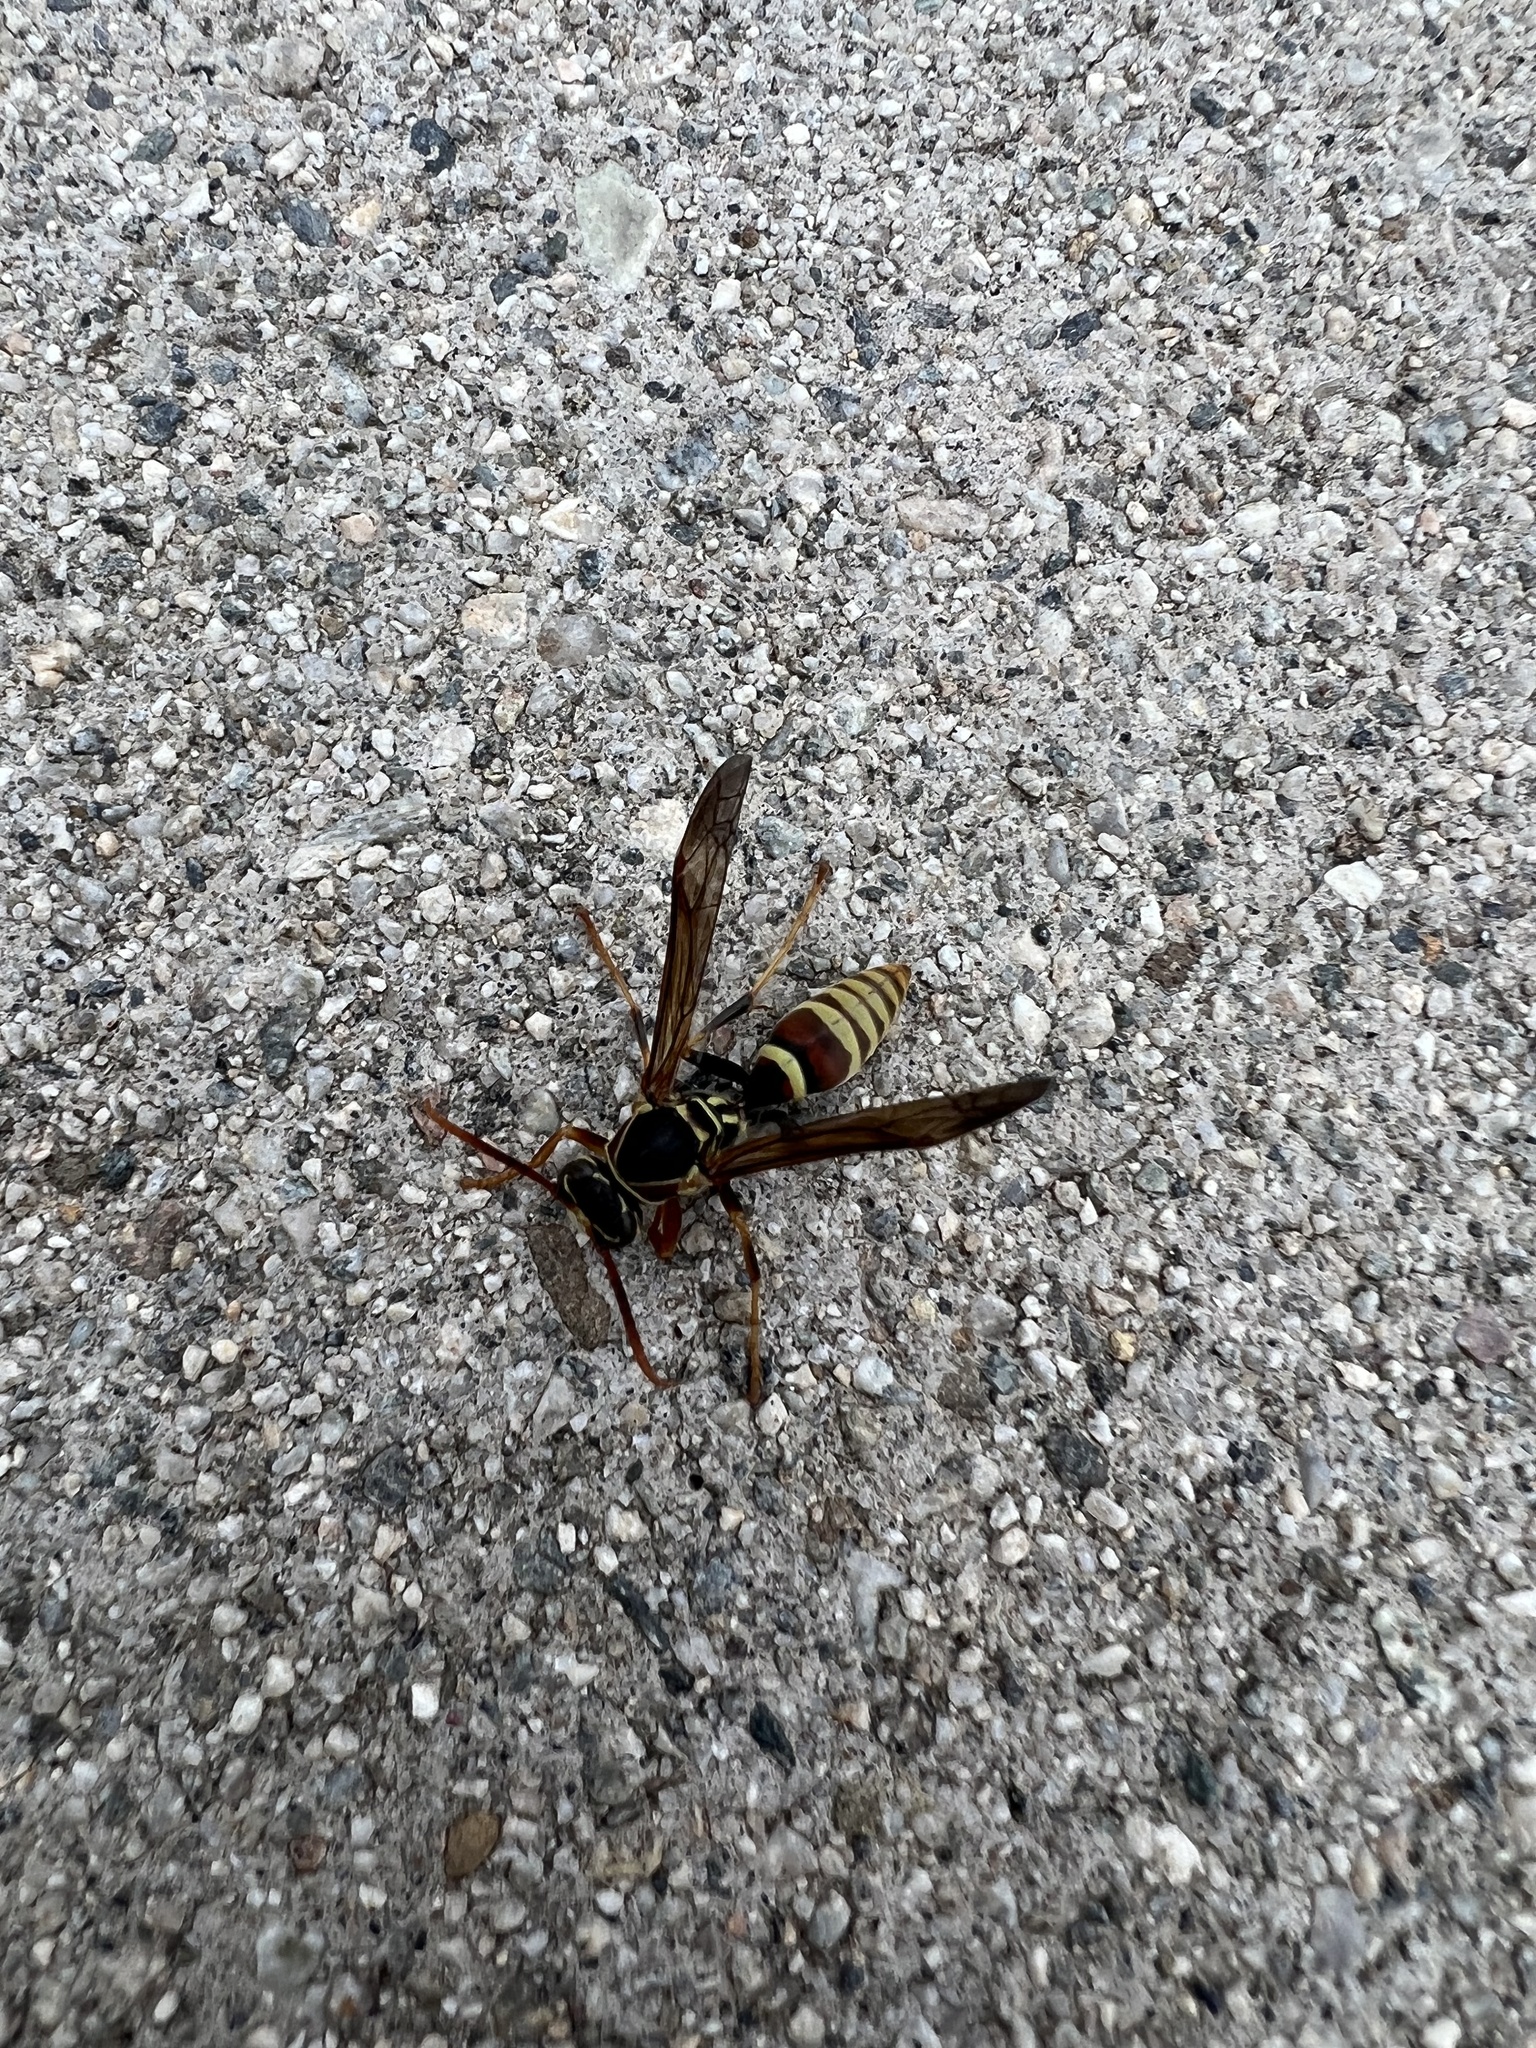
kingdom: Animalia
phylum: Arthropoda
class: Insecta
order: Hymenoptera
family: Eumenidae
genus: Polistes
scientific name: Polistes exclamans
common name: Paper wasp
